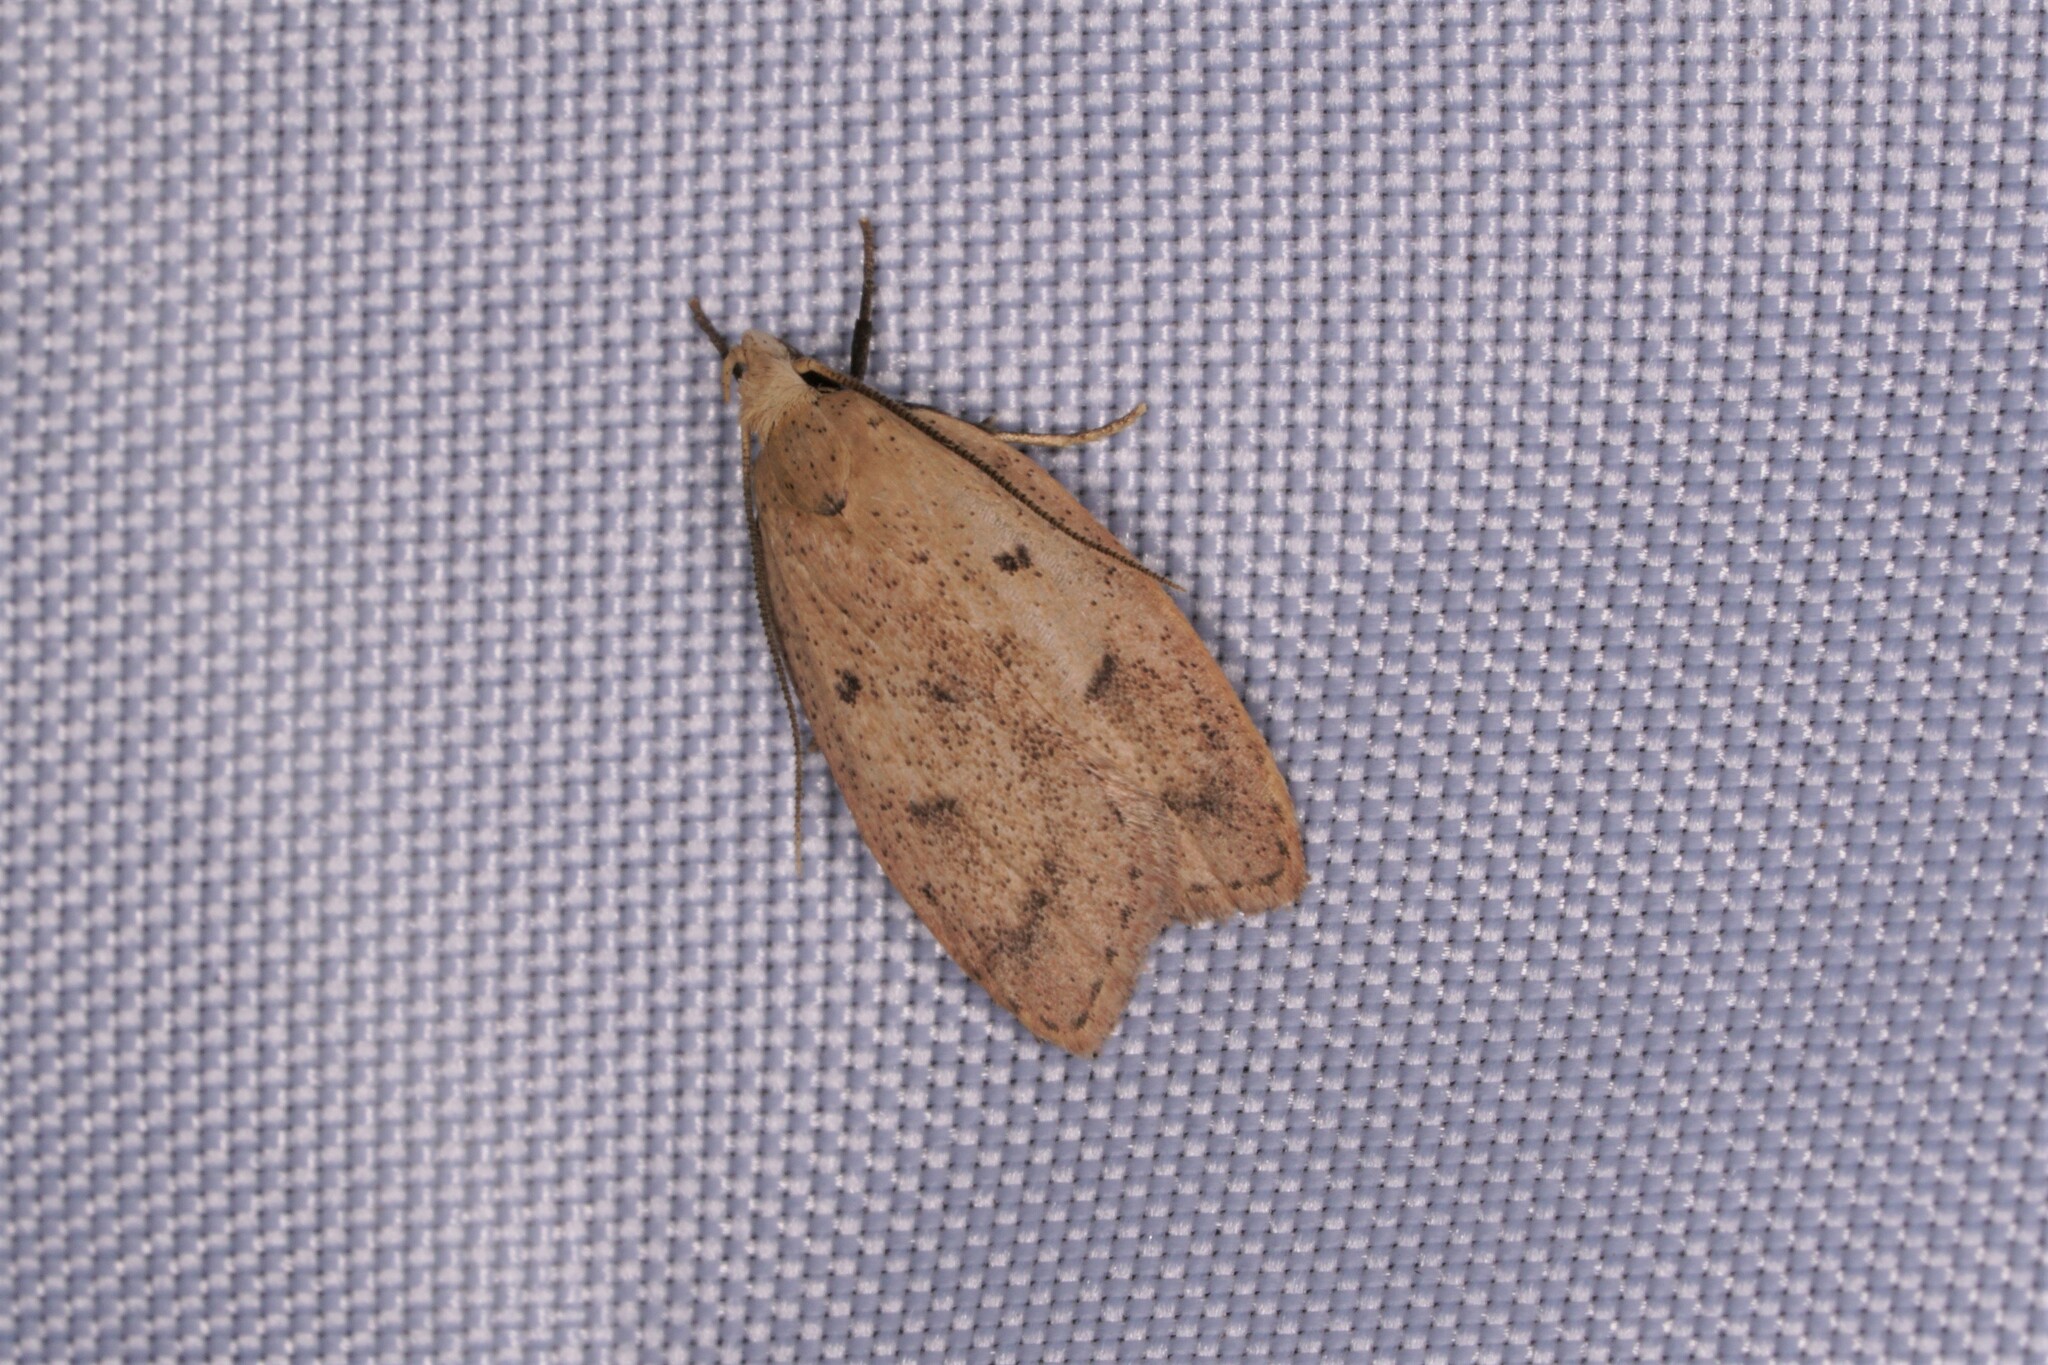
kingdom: Animalia
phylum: Arthropoda
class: Insecta
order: Lepidoptera
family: Peleopodidae
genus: Machimia
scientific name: Machimia tentoriferella
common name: Gold-striped leaftier moth
